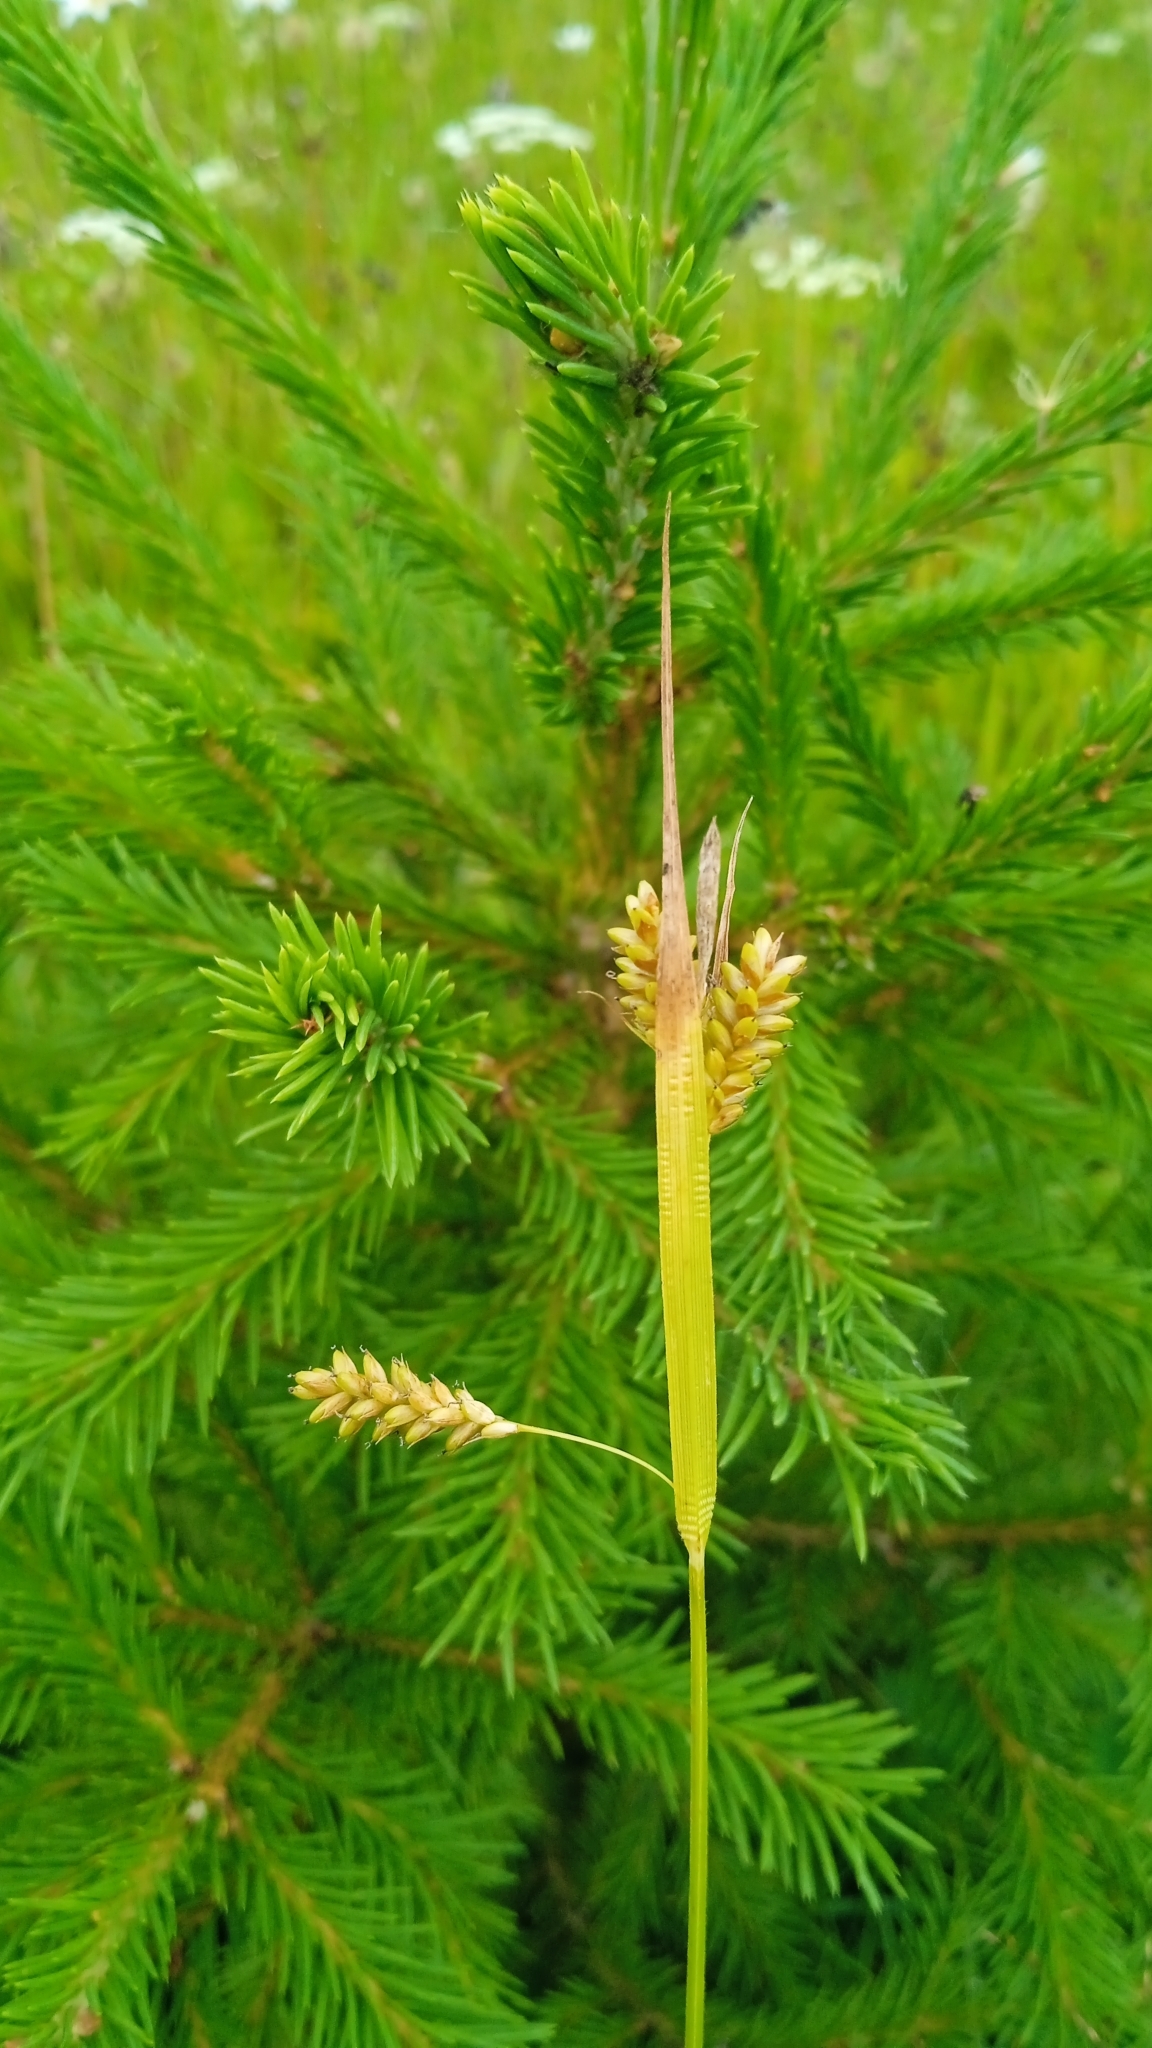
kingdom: Plantae
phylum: Tracheophyta
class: Liliopsida
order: Poales
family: Cyperaceae
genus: Carex
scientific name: Carex pallescens
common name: Pale sedge
